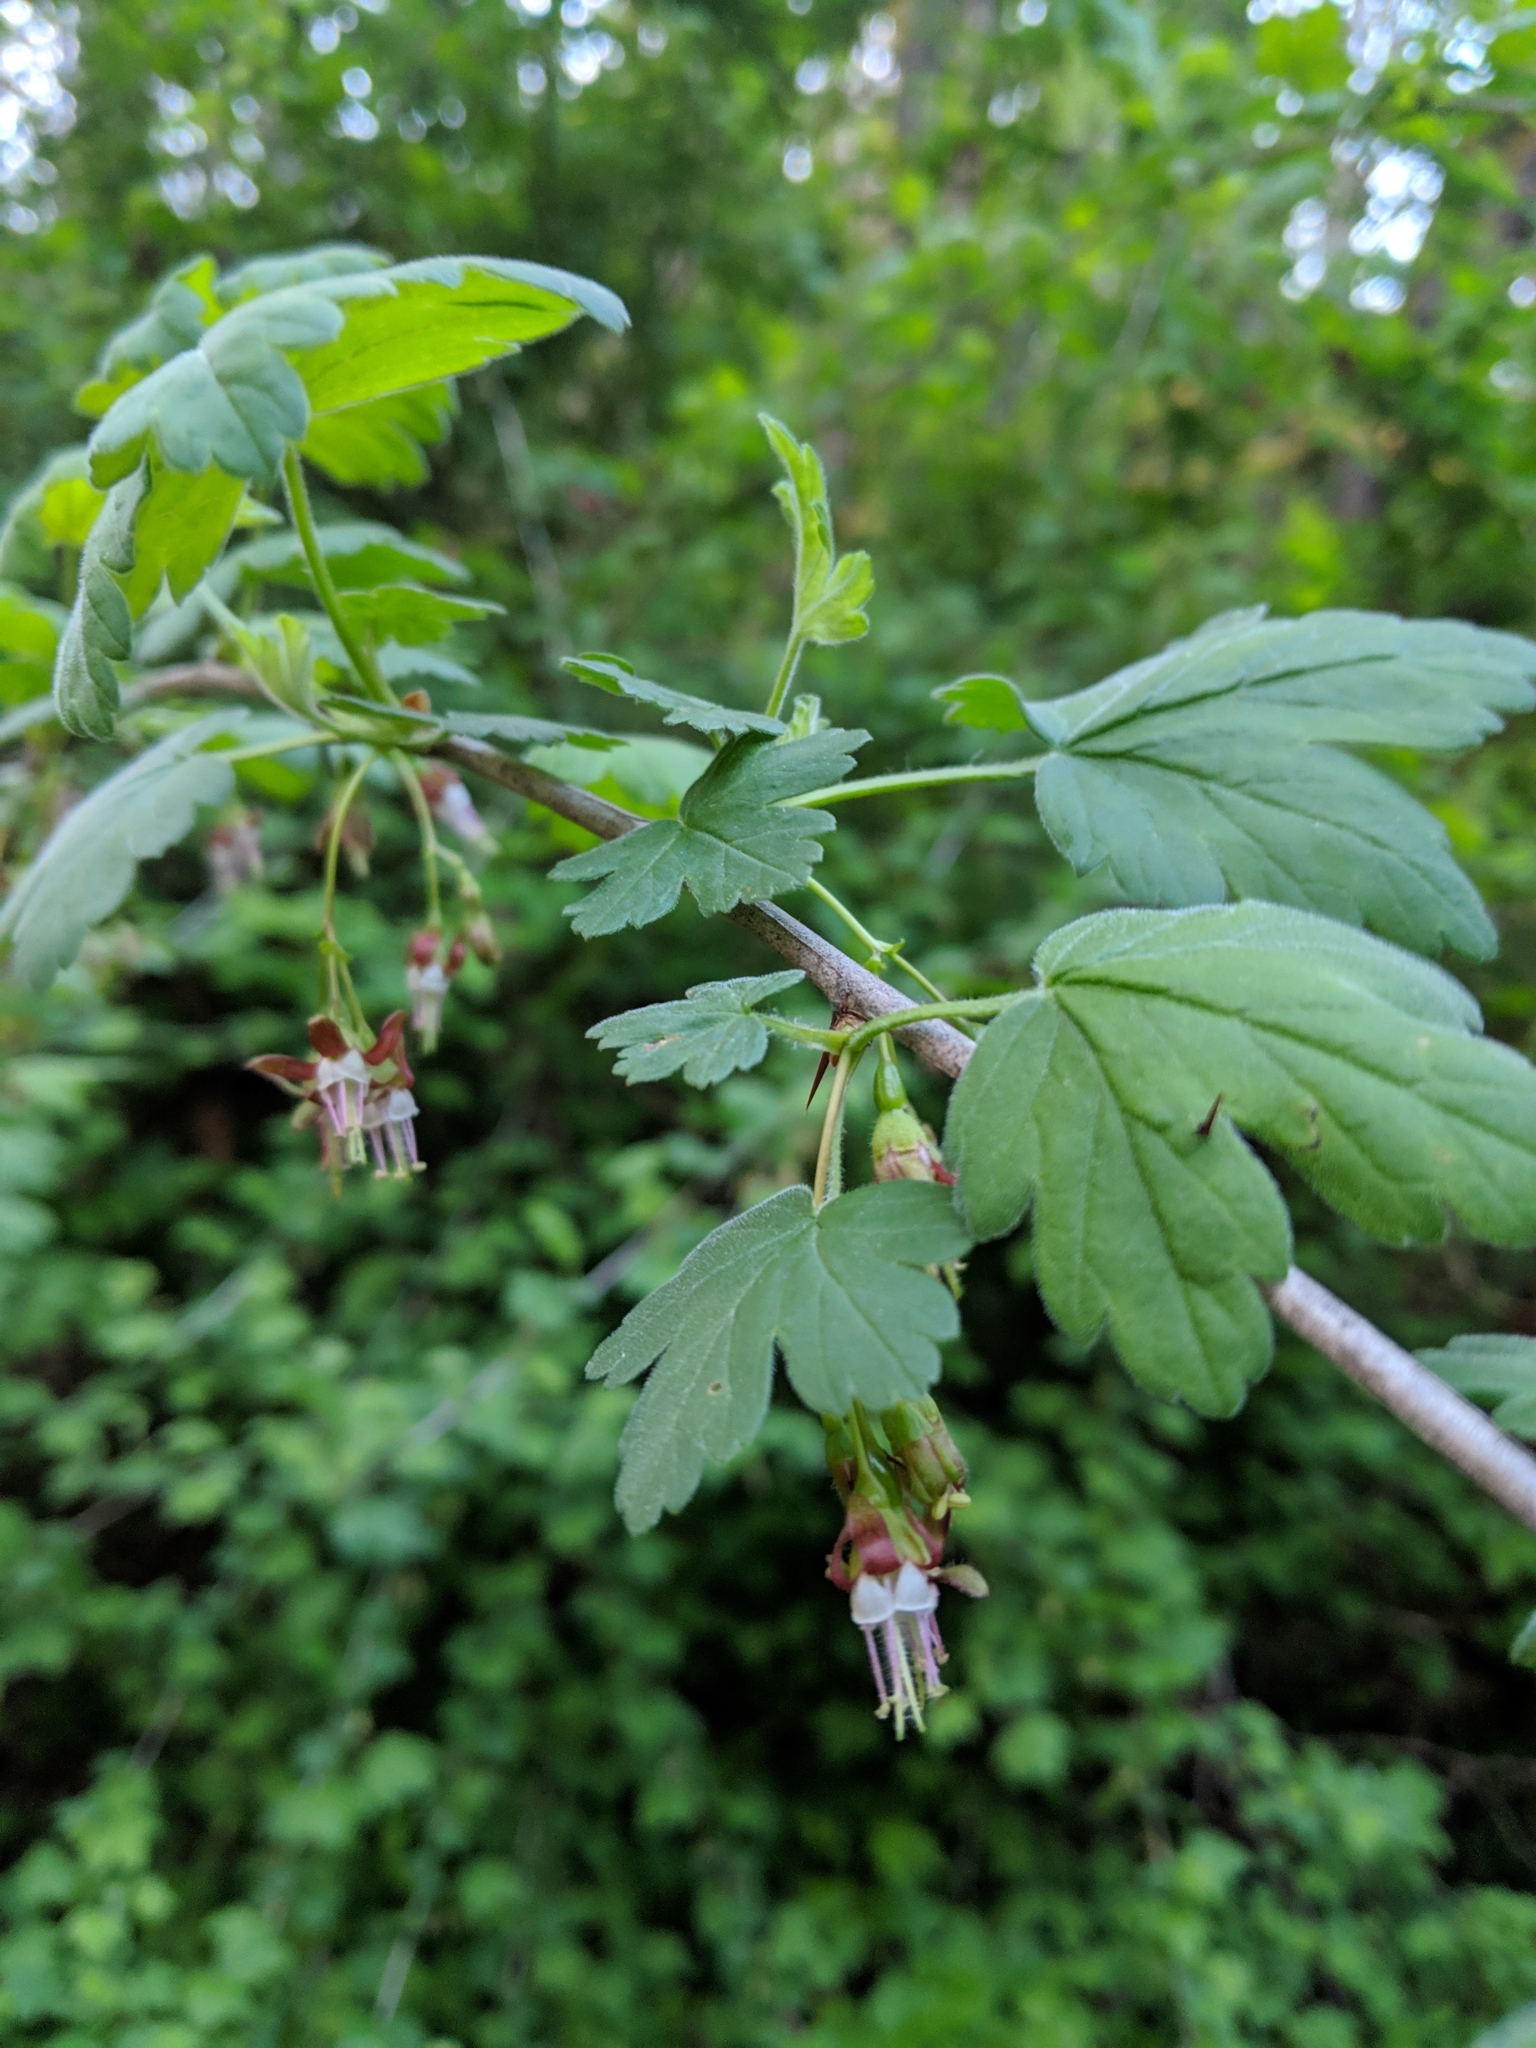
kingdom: Plantae
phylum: Tracheophyta
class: Magnoliopsida
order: Saxifragales
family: Grossulariaceae
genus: Ribes
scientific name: Ribes divaricatum
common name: Wild black gooseberry
